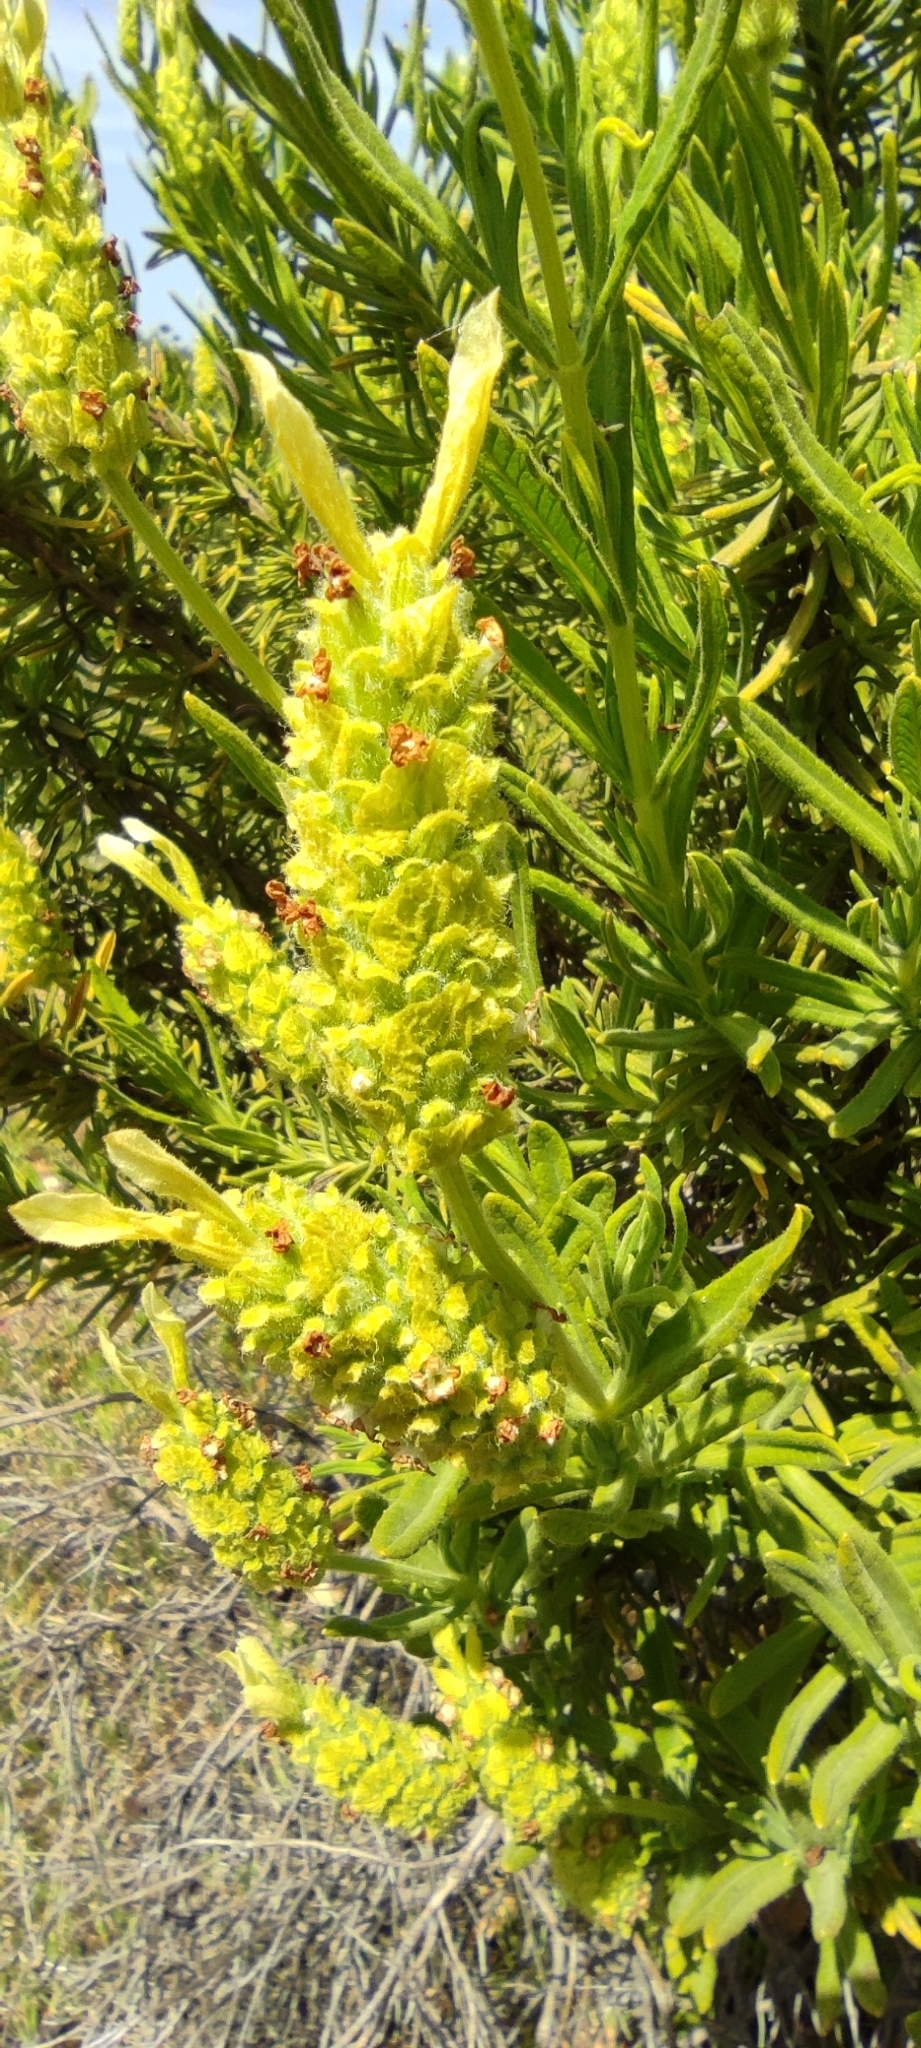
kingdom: Plantae
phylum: Tracheophyta
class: Magnoliopsida
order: Lamiales
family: Lamiaceae
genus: Lavandula
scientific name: Lavandula viridis
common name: Green spanish lavender
